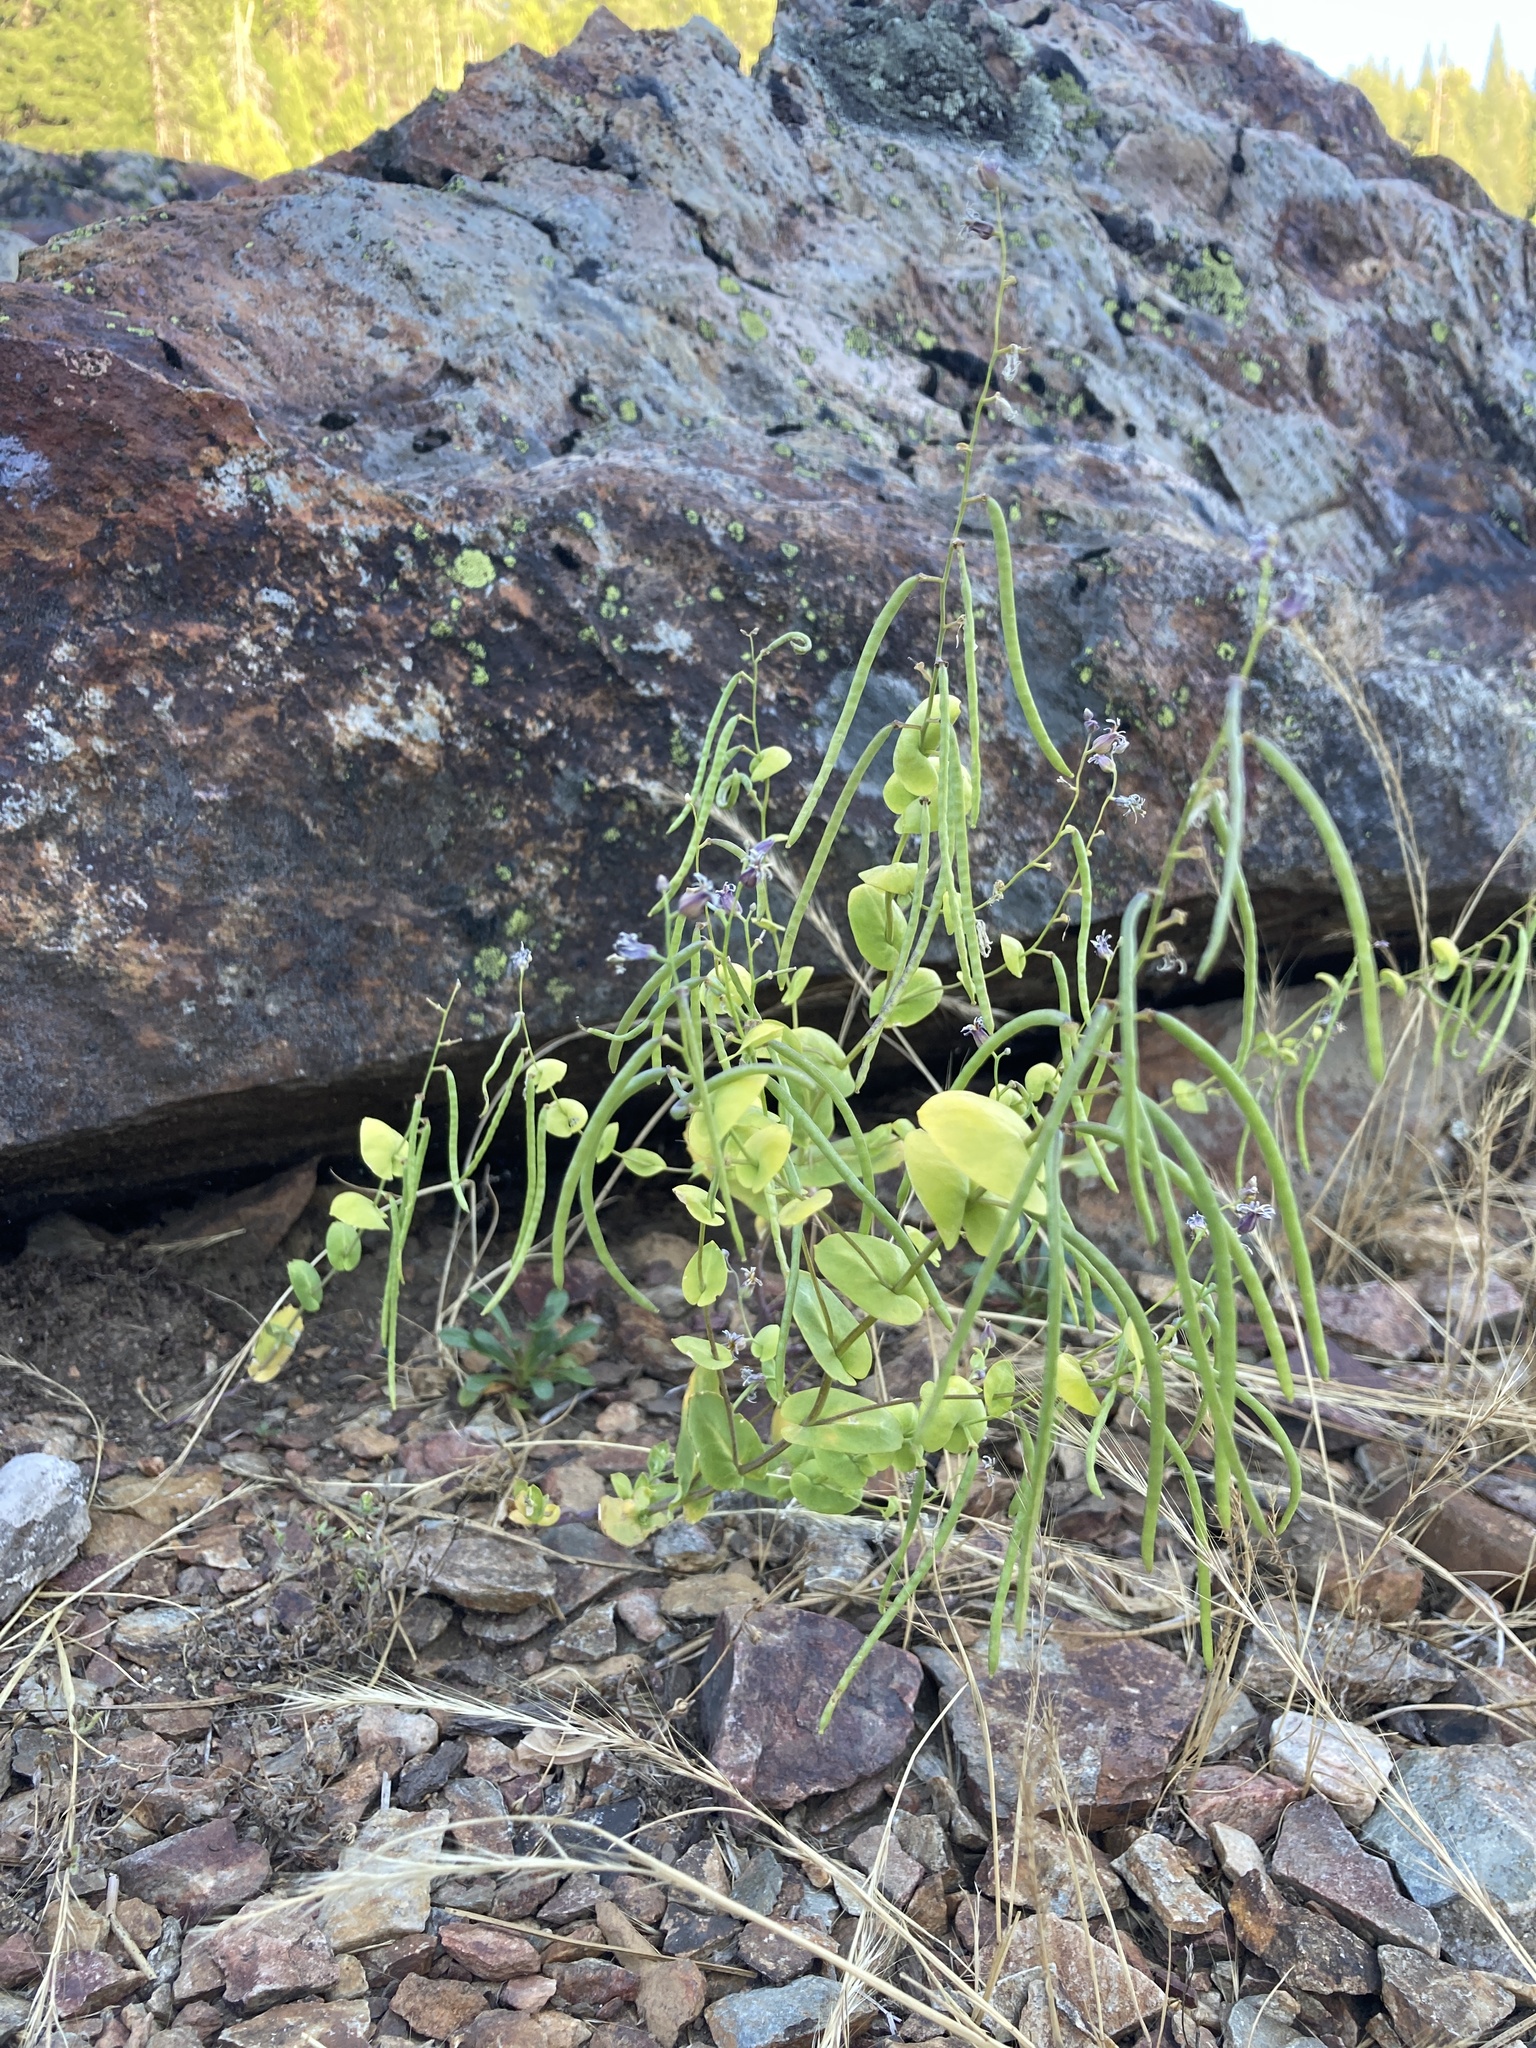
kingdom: Plantae
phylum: Tracheophyta
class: Magnoliopsida
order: Brassicales
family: Brassicaceae
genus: Streptanthus
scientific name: Streptanthus tortuosus
